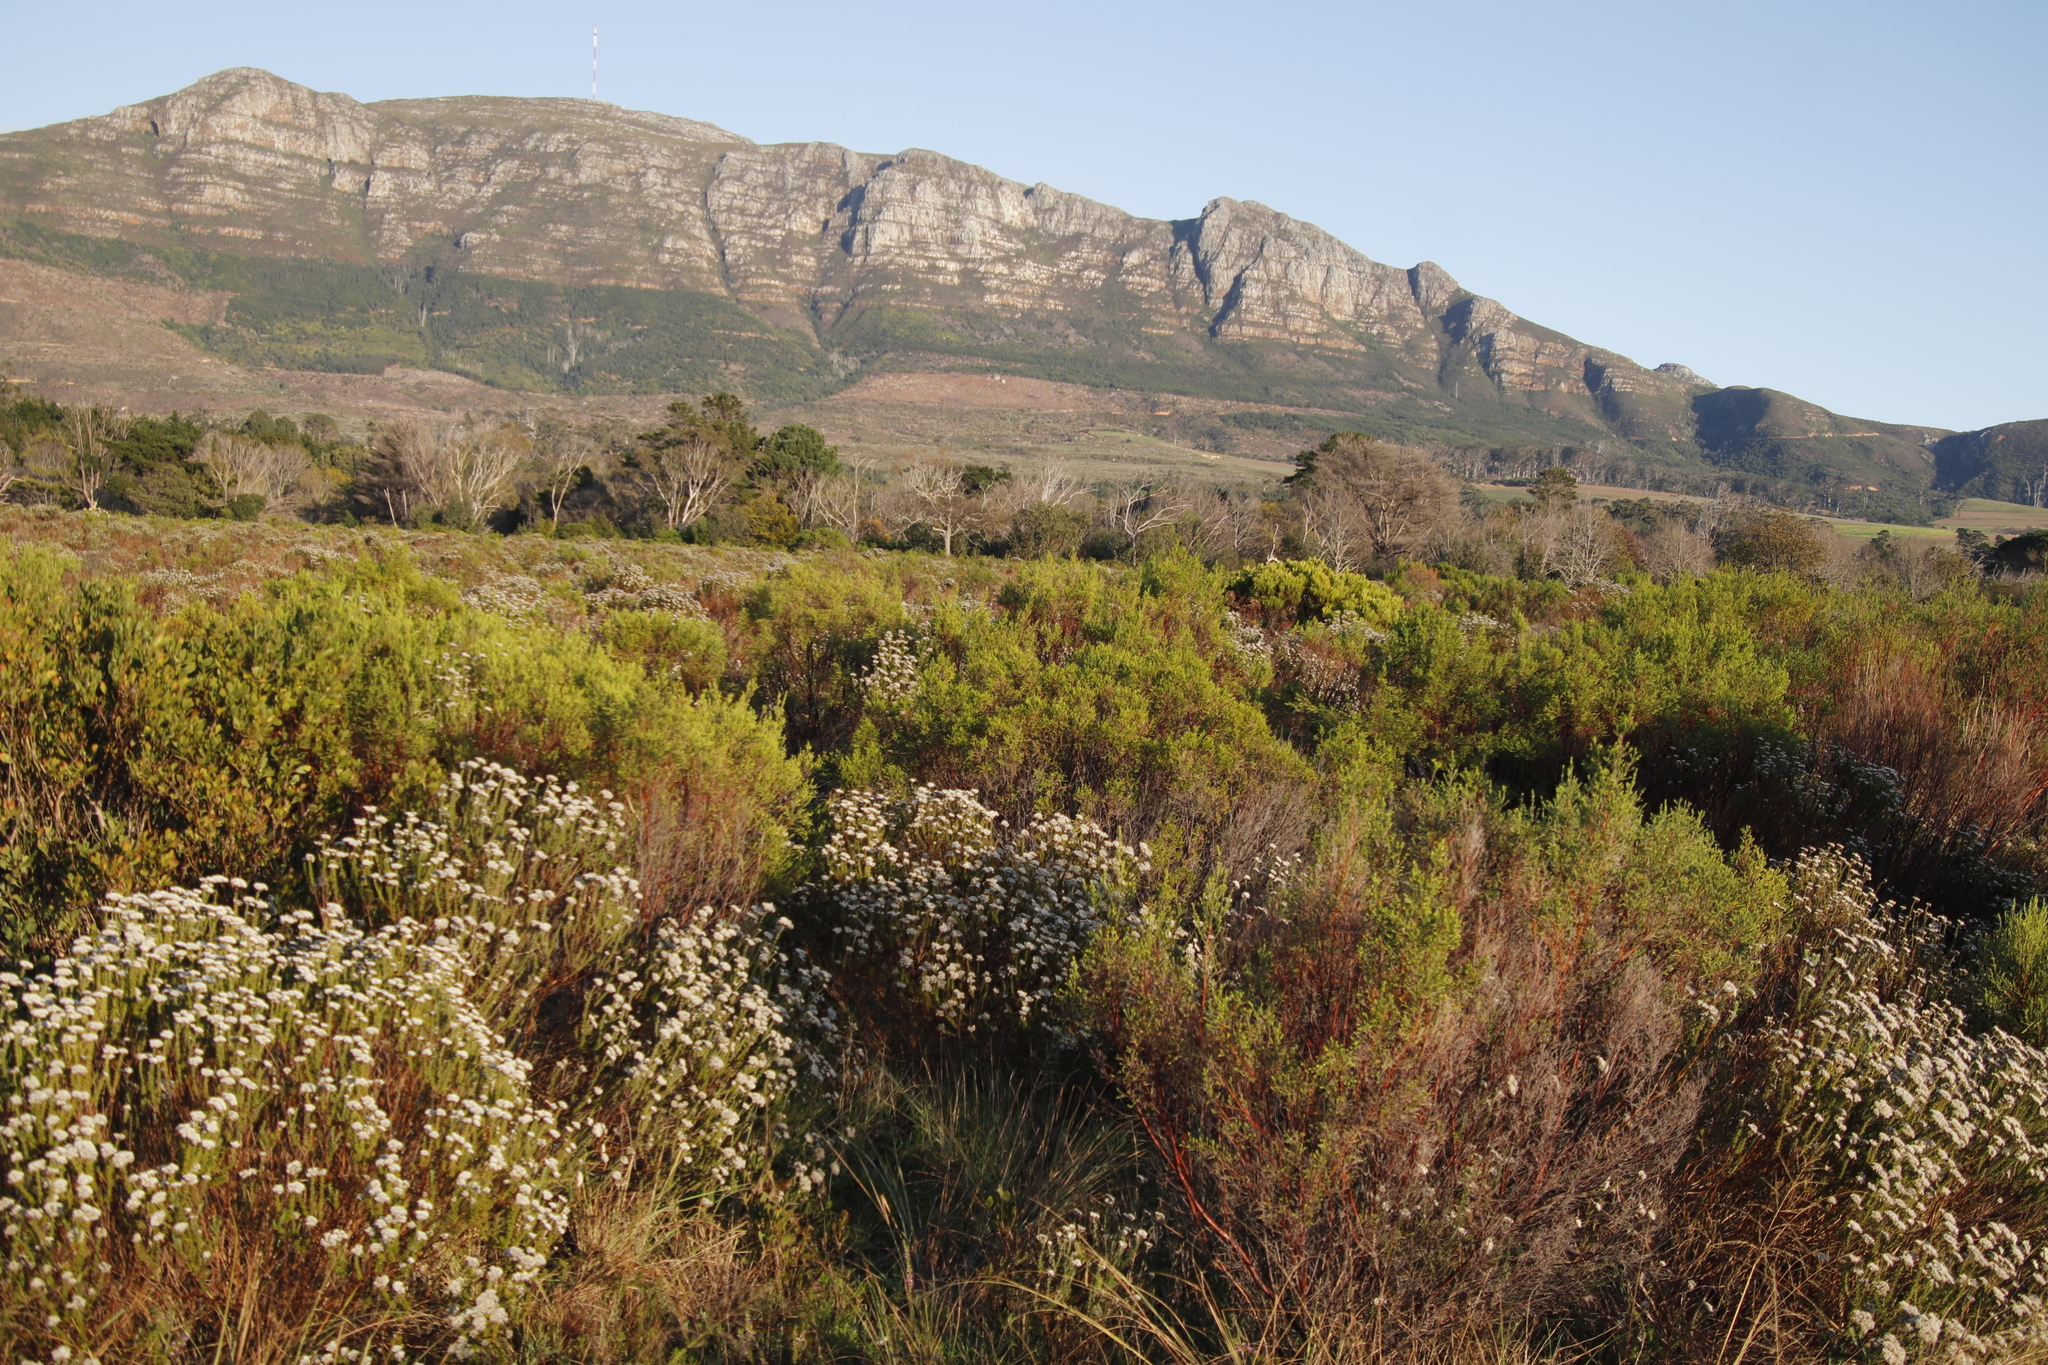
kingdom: Plantae
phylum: Tracheophyta
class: Magnoliopsida
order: Malvales
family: Thymelaeaceae
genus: Passerina
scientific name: Passerina corymbosa
